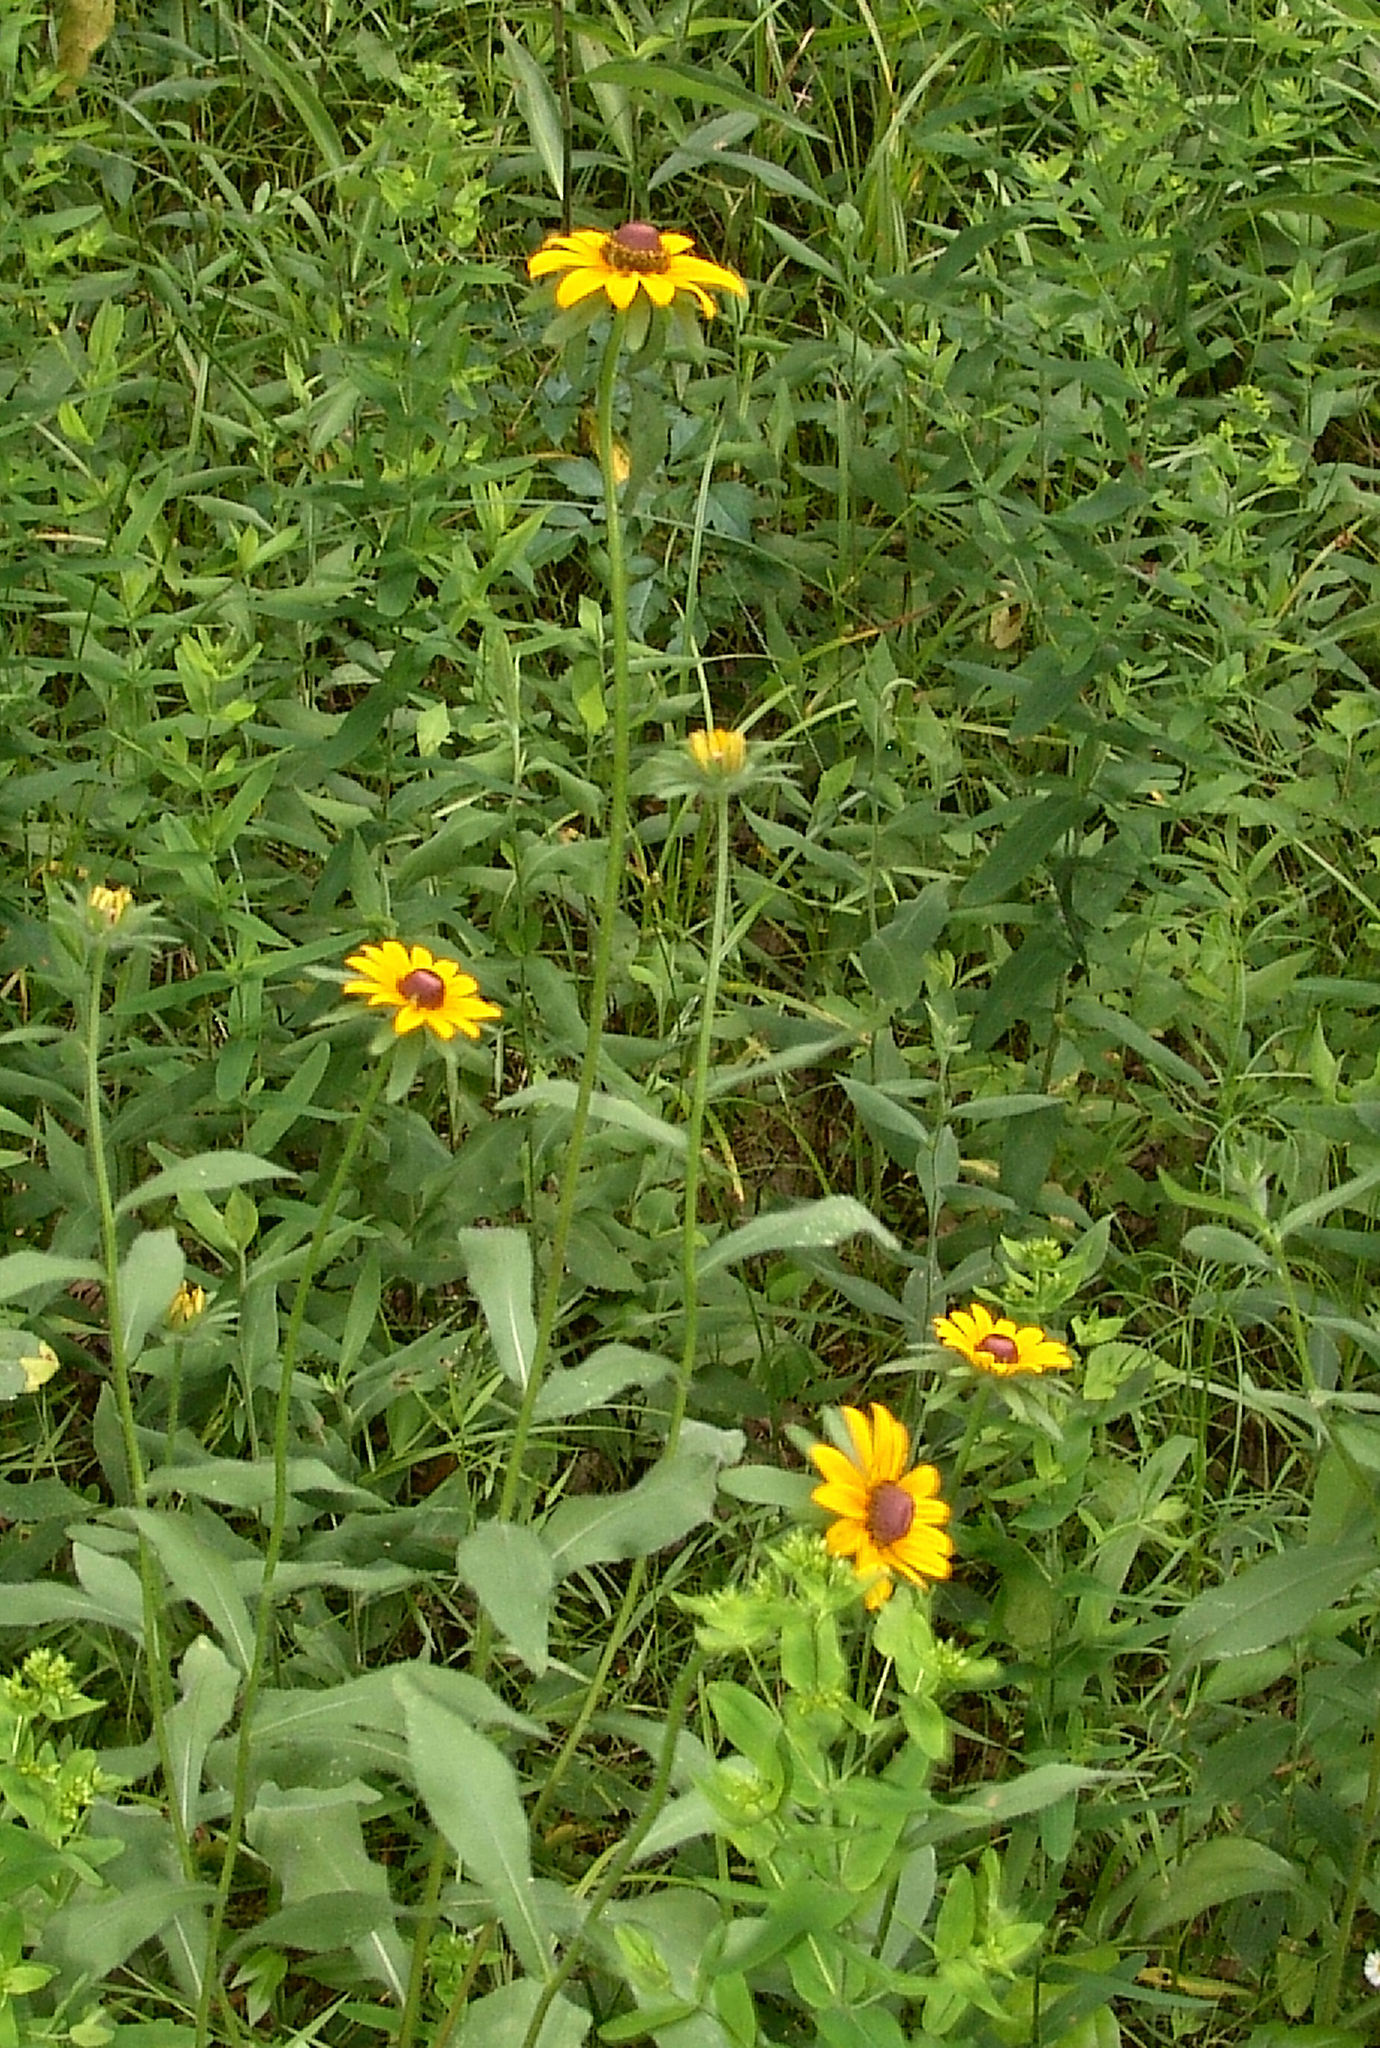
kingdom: Plantae
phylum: Tracheophyta
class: Magnoliopsida
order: Asterales
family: Asteraceae
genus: Rudbeckia
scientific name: Rudbeckia hirta
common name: Black-eyed-susan
